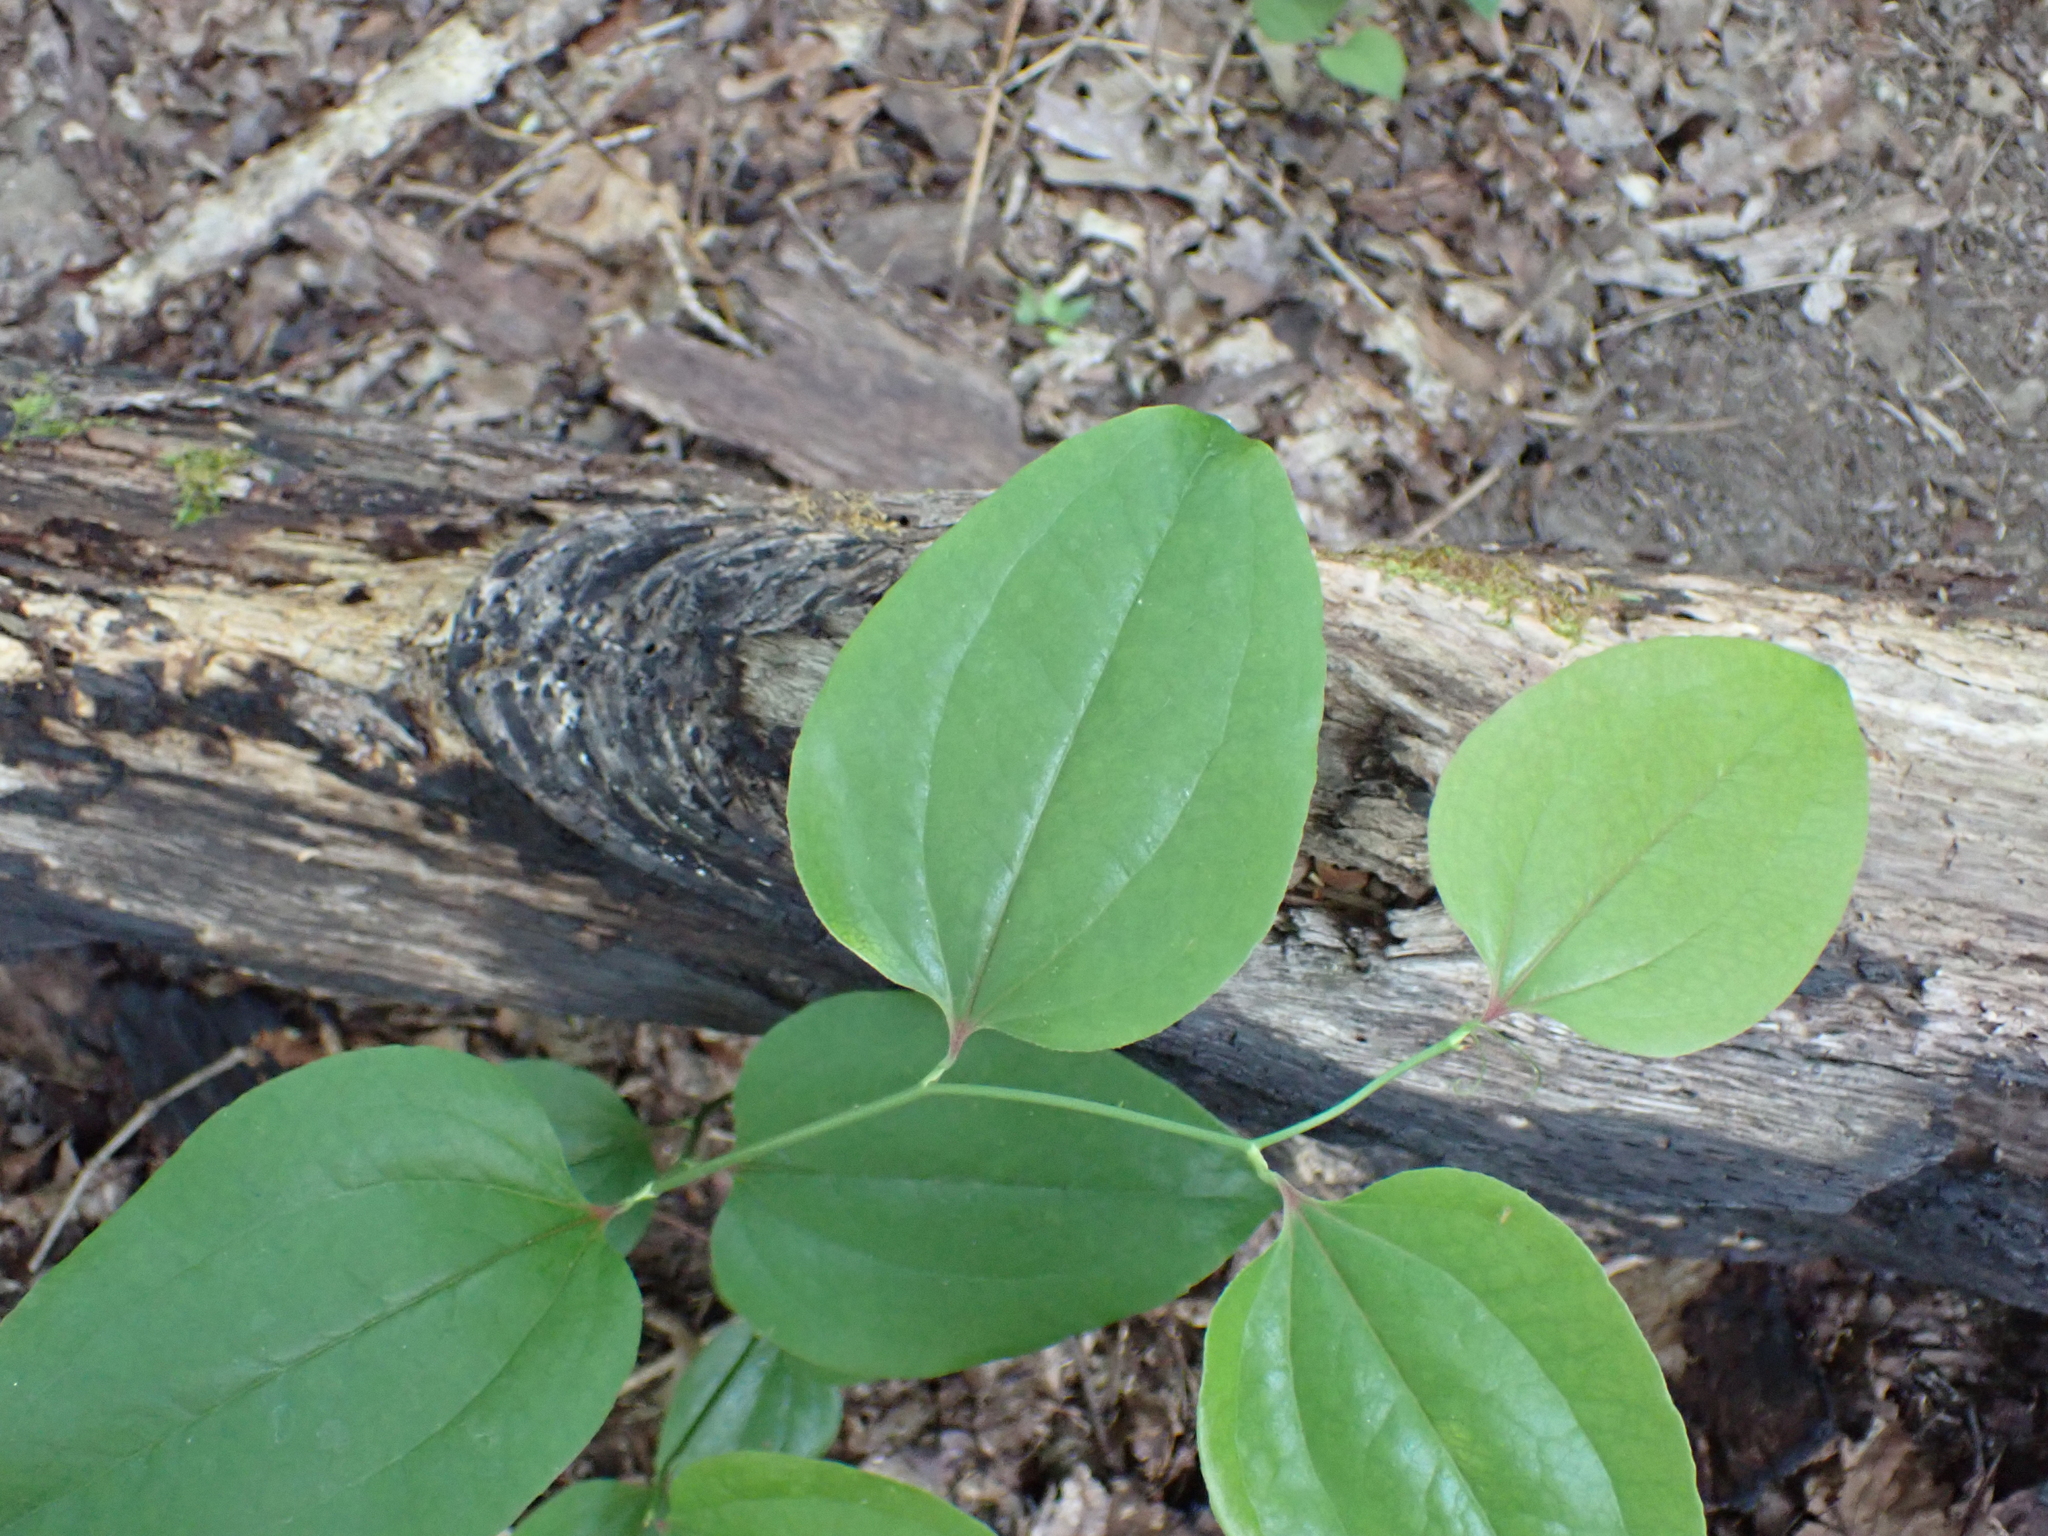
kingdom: Plantae
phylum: Tracheophyta
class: Liliopsida
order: Liliales
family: Smilacaceae
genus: Smilax
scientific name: Smilax glauca
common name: Cat greenbrier
